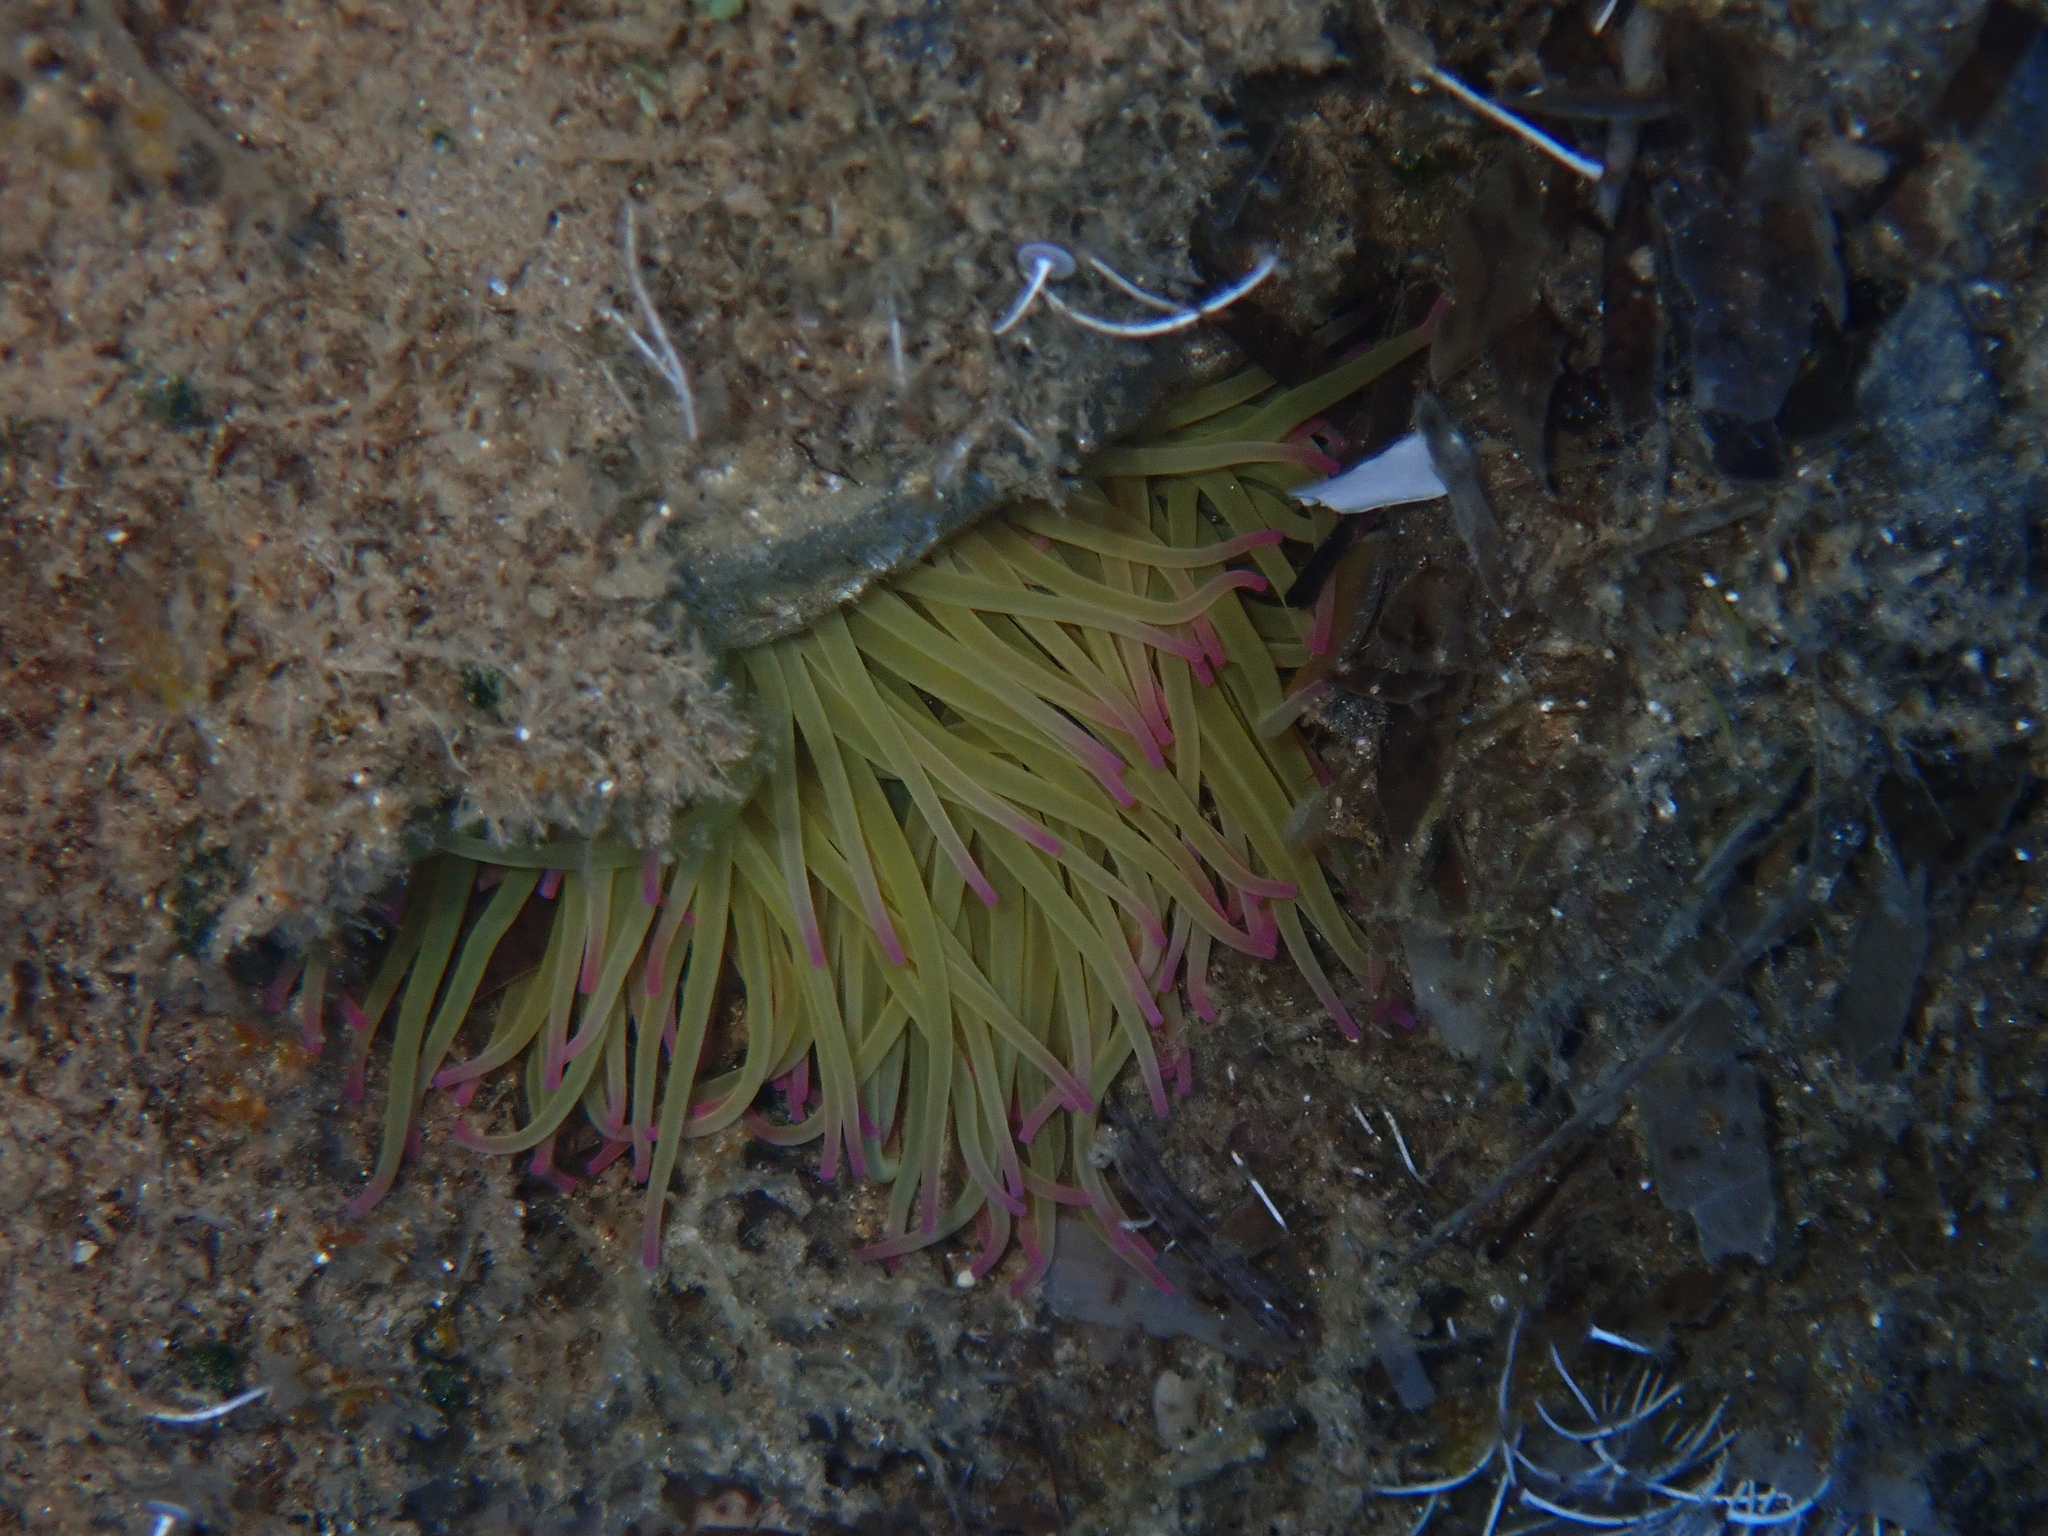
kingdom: Animalia
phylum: Cnidaria
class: Anthozoa
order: Actiniaria
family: Actiniidae
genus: Anemonia
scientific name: Anemonia viridis
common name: Snakelocks anemone
